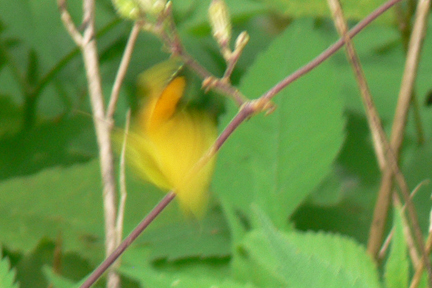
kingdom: Animalia
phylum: Arthropoda
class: Insecta
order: Lepidoptera
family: Pieridae
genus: Abaeis
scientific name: Abaeis nicippe
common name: Sleepy orange
